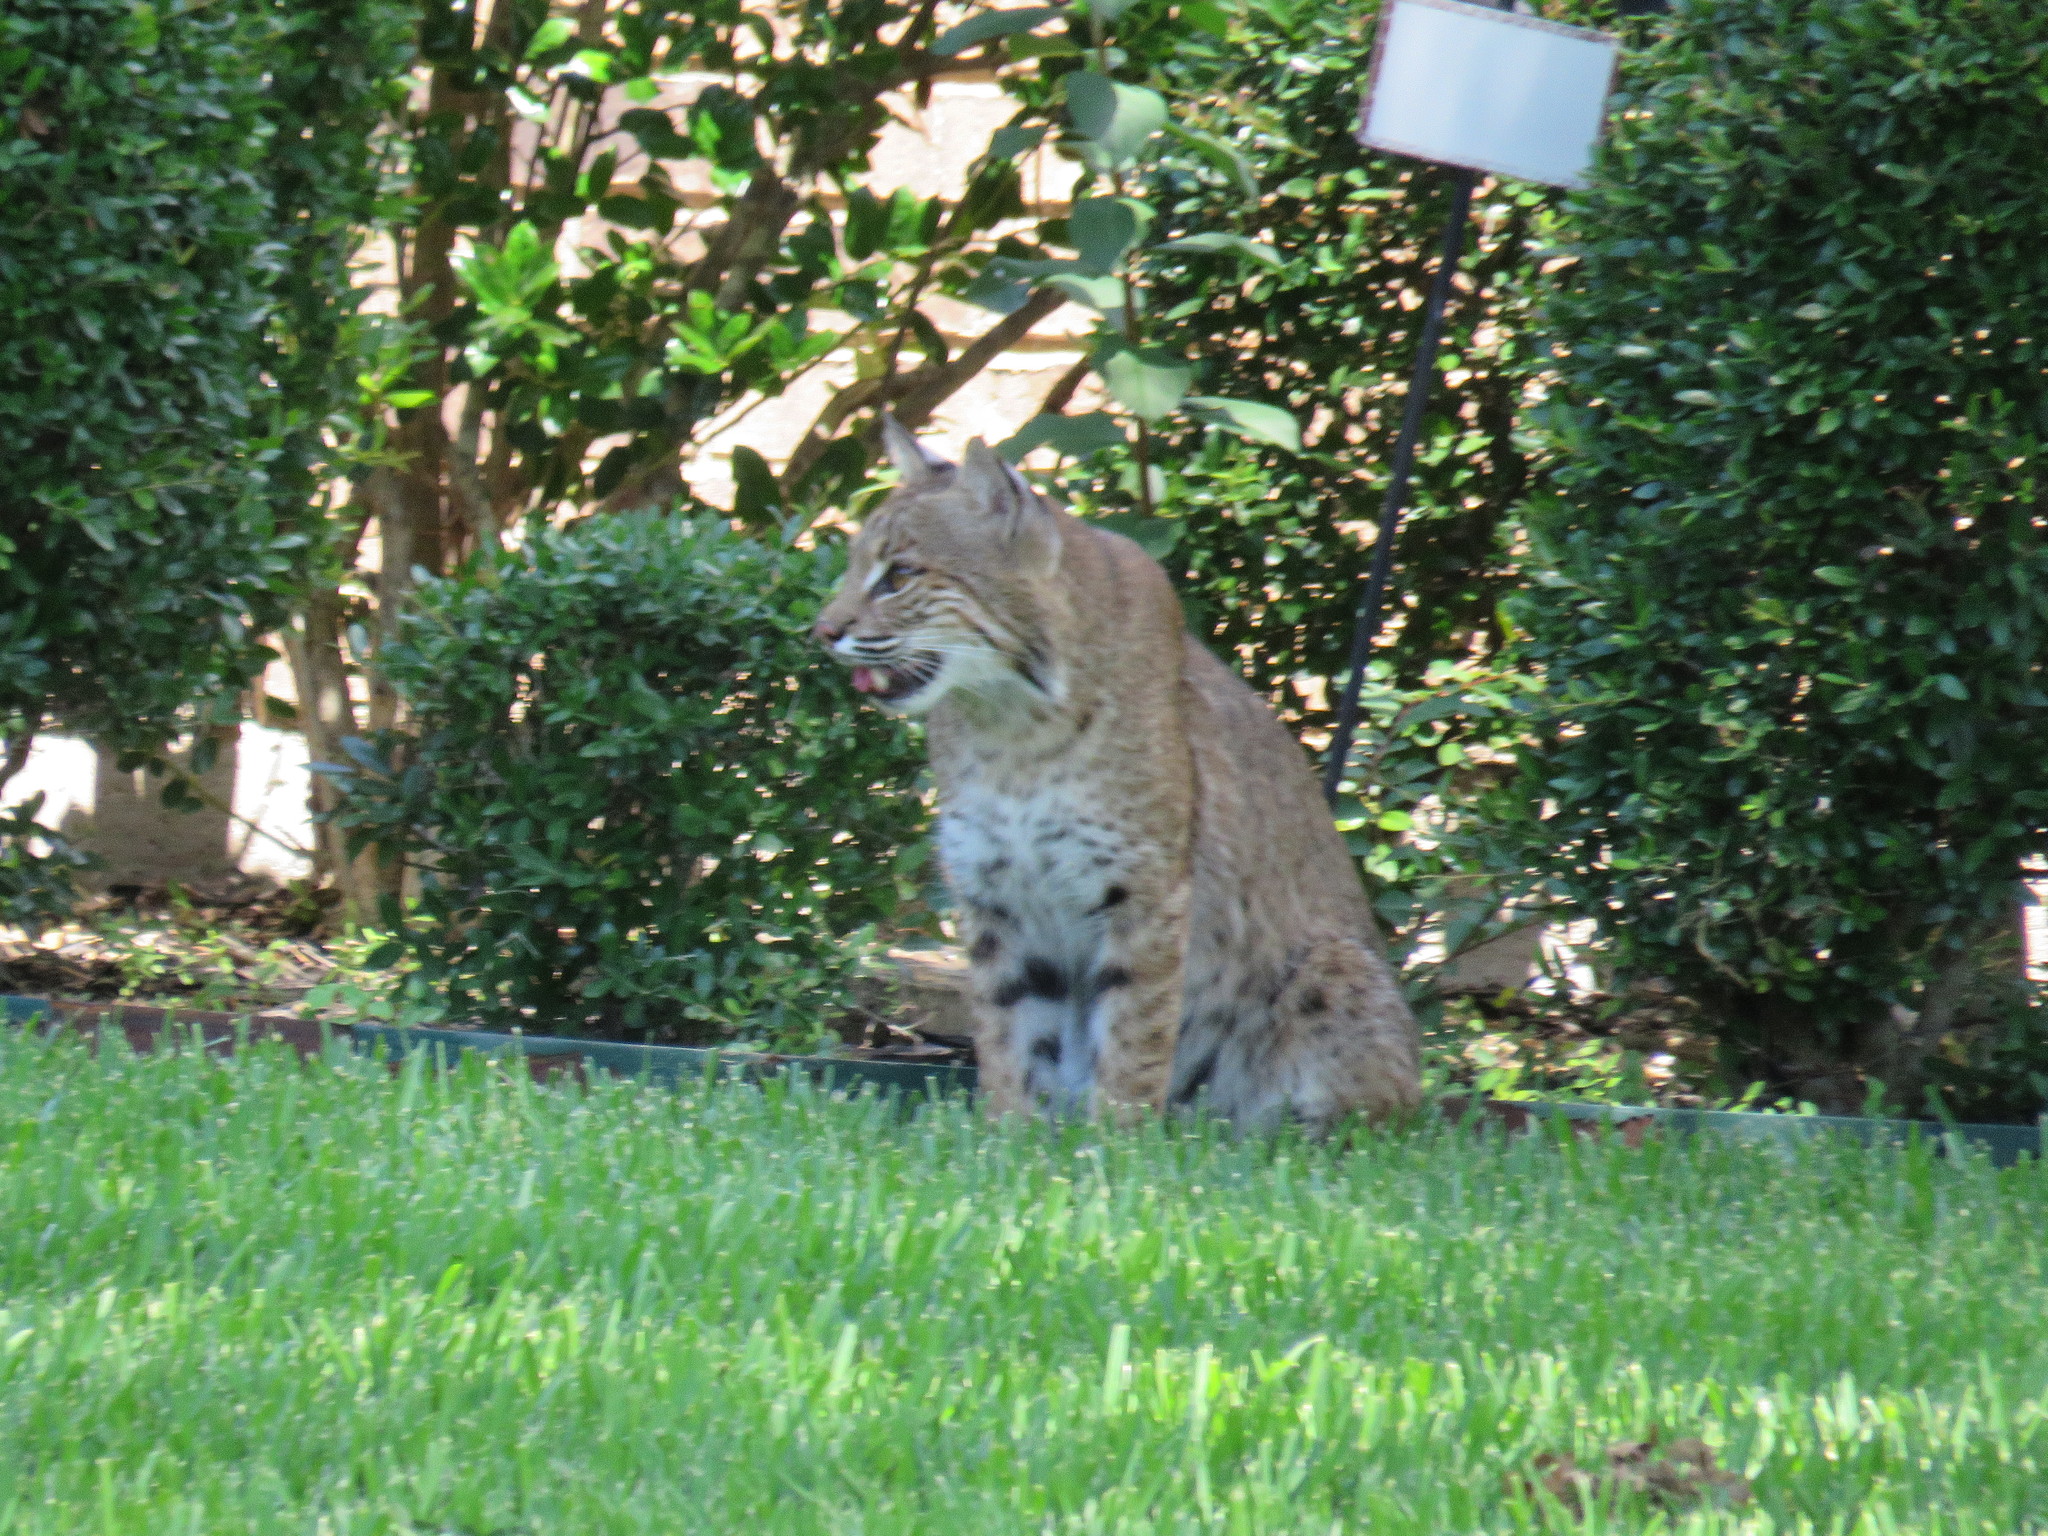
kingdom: Animalia
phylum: Chordata
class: Mammalia
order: Carnivora
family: Felidae
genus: Lynx
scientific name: Lynx rufus
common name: Bobcat
